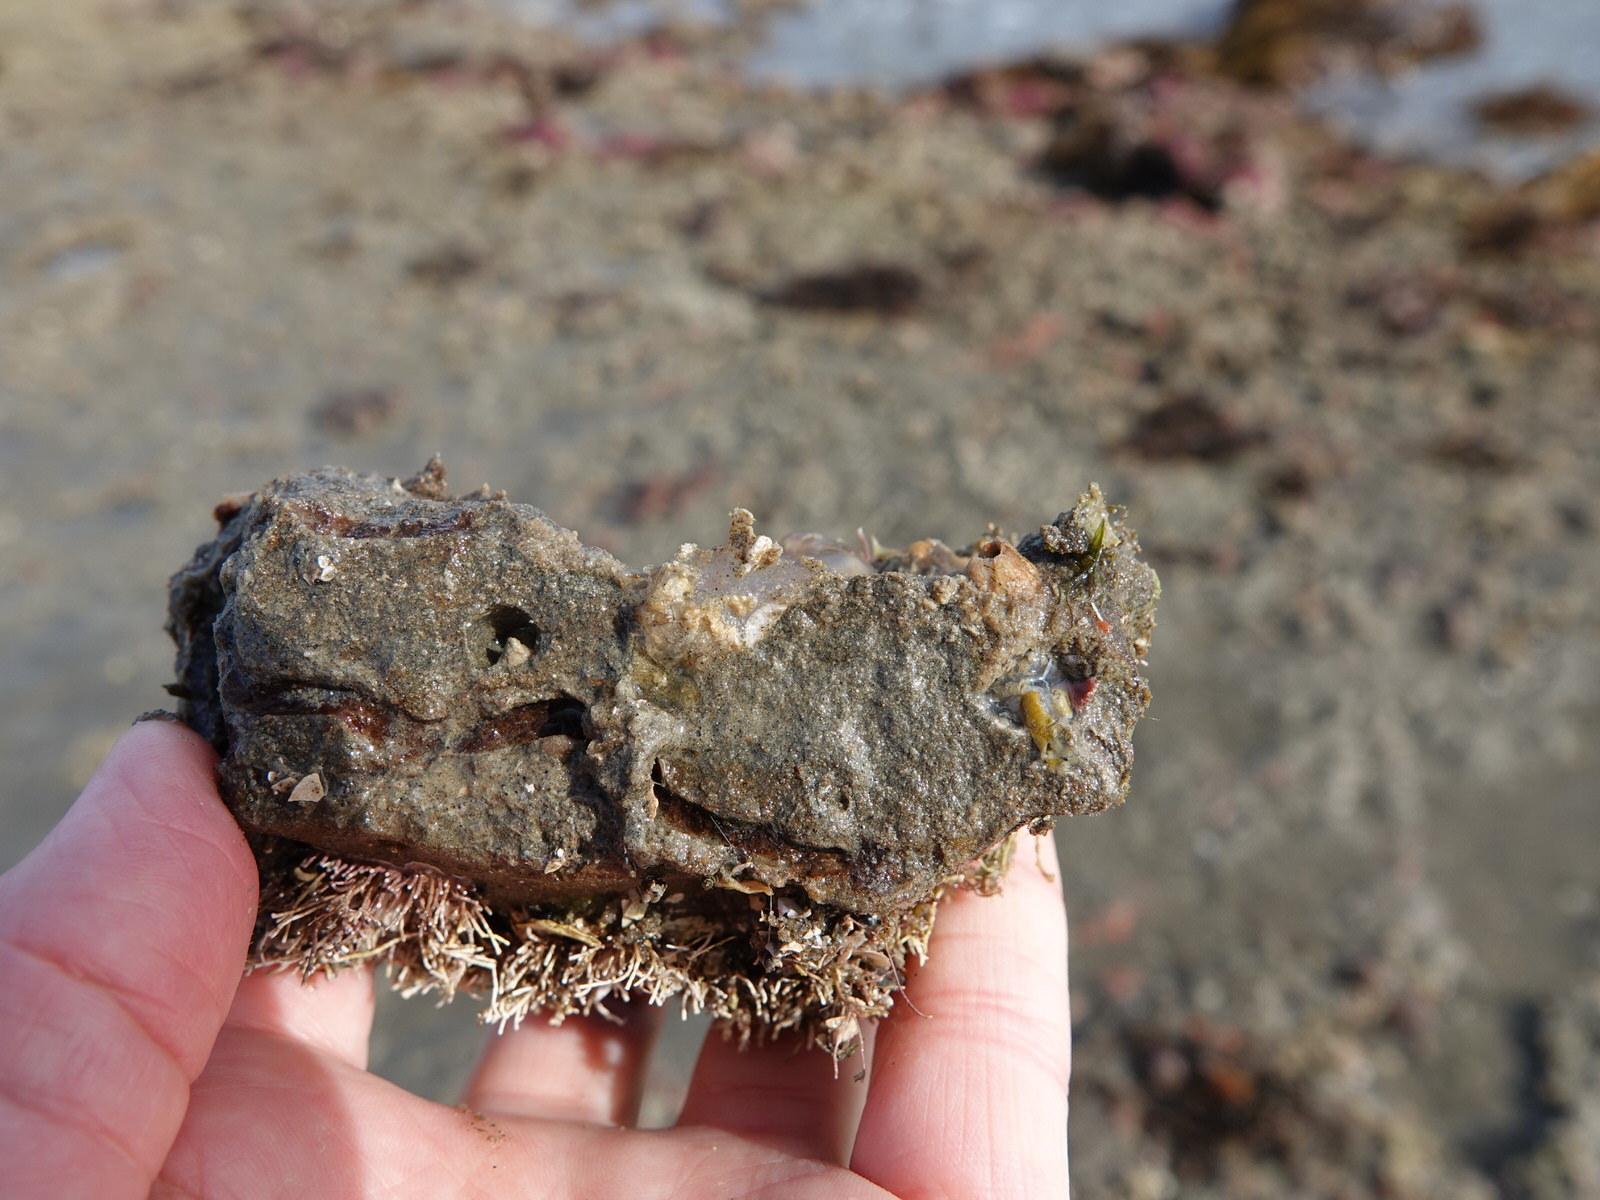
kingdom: Animalia
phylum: Chordata
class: Ascidiacea
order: Phlebobranchia
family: Corellidae
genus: Corella
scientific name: Corella eumyota
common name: Orange-tipped sea squirt
